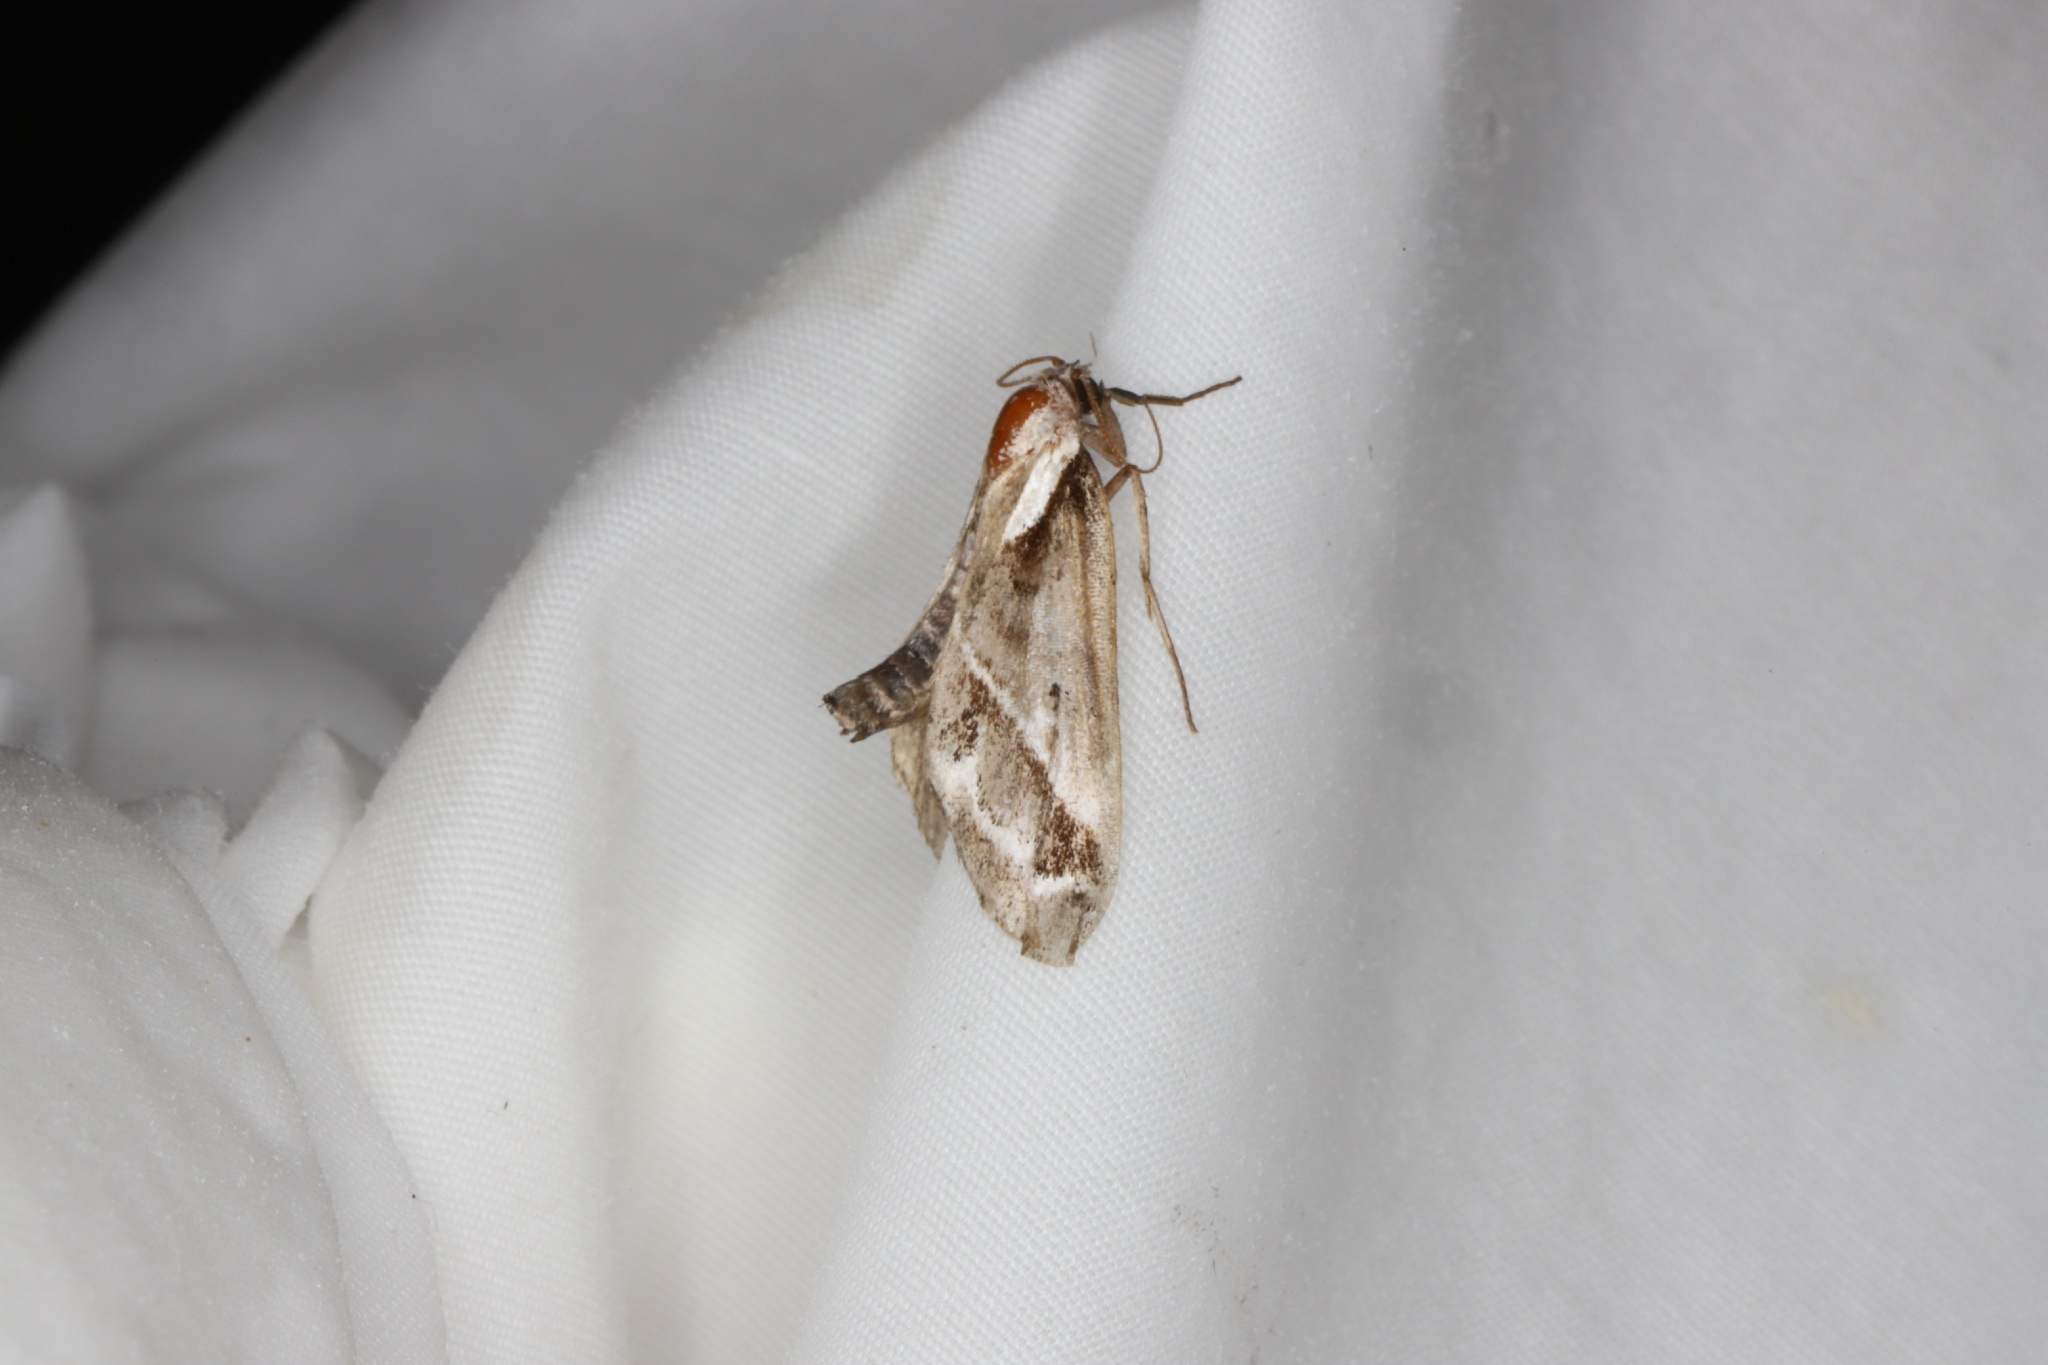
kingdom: Animalia
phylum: Arthropoda
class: Insecta
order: Lepidoptera
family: Nolidae
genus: Baileya
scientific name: Baileya doubledayi
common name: Doubleday's baileya moth
